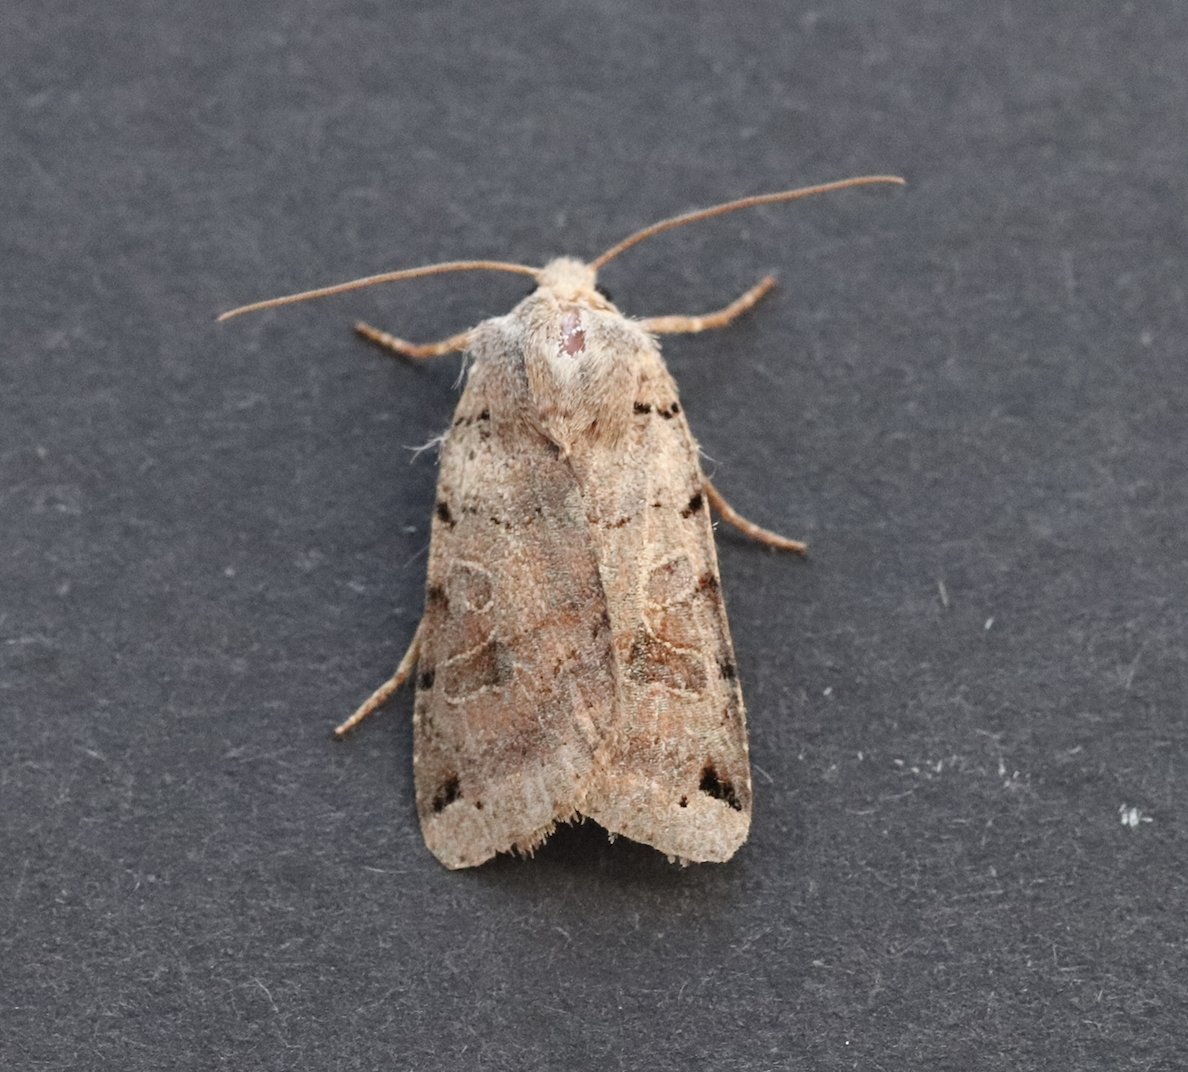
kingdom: Animalia
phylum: Arthropoda
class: Insecta
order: Lepidoptera
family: Noctuidae
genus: Agrochola
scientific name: Agrochola litura
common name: Brown-spot pinion
